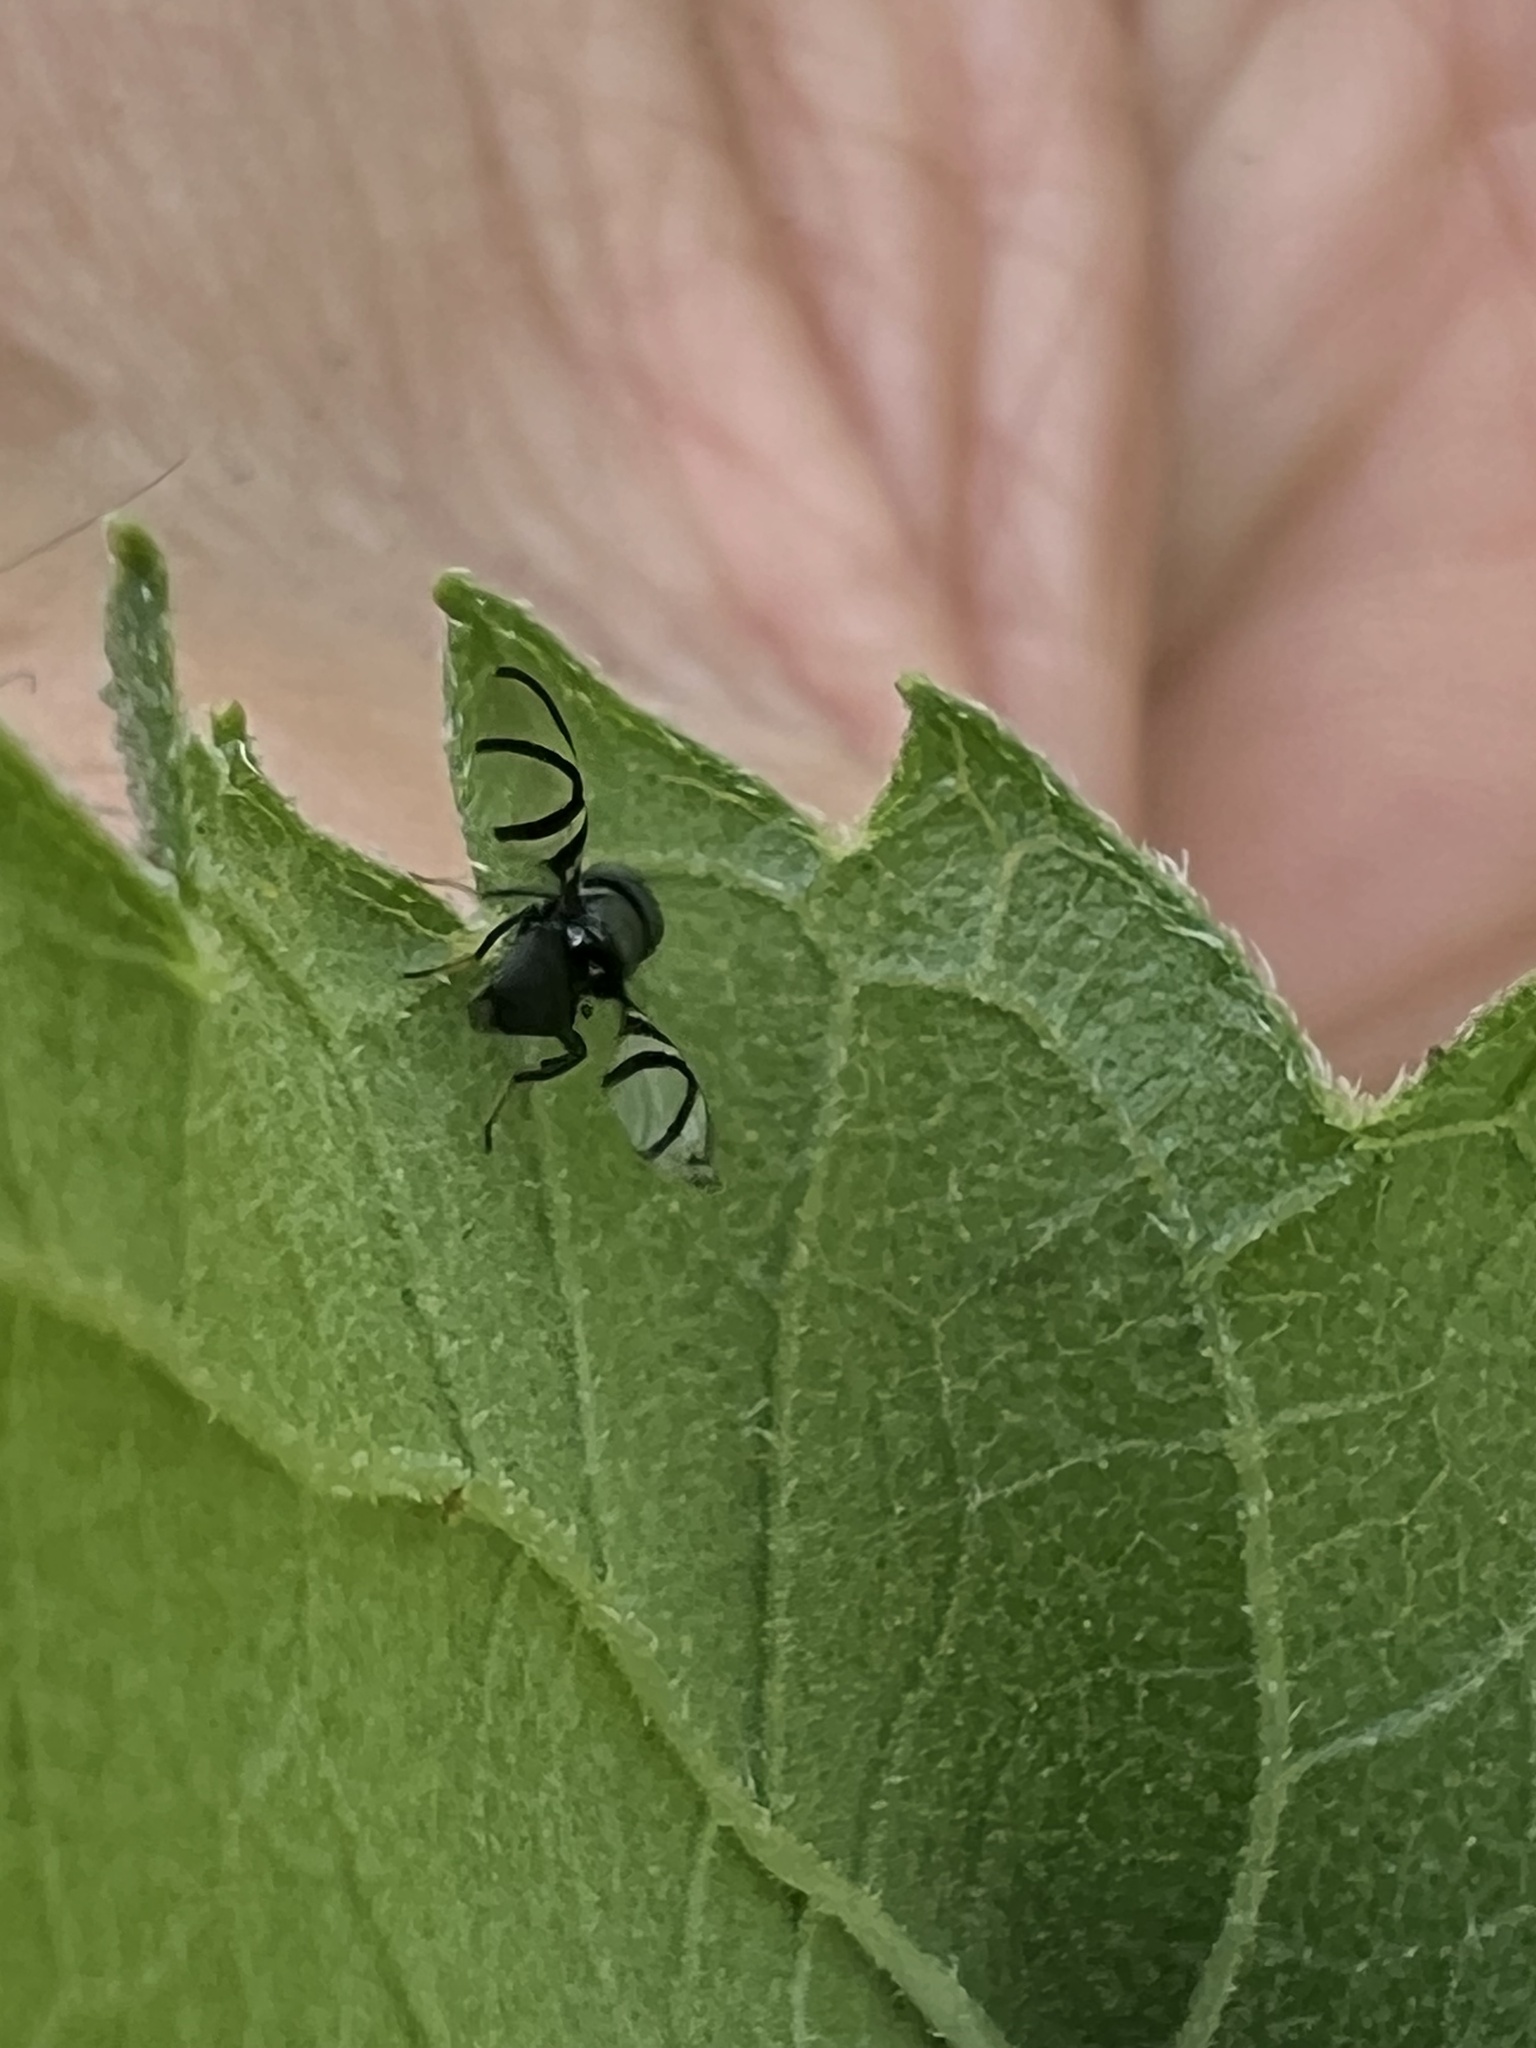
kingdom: Animalia
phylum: Arthropoda
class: Insecta
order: Diptera
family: Ulidiidae
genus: Axiologina
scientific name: Axiologina ferrumequinum
